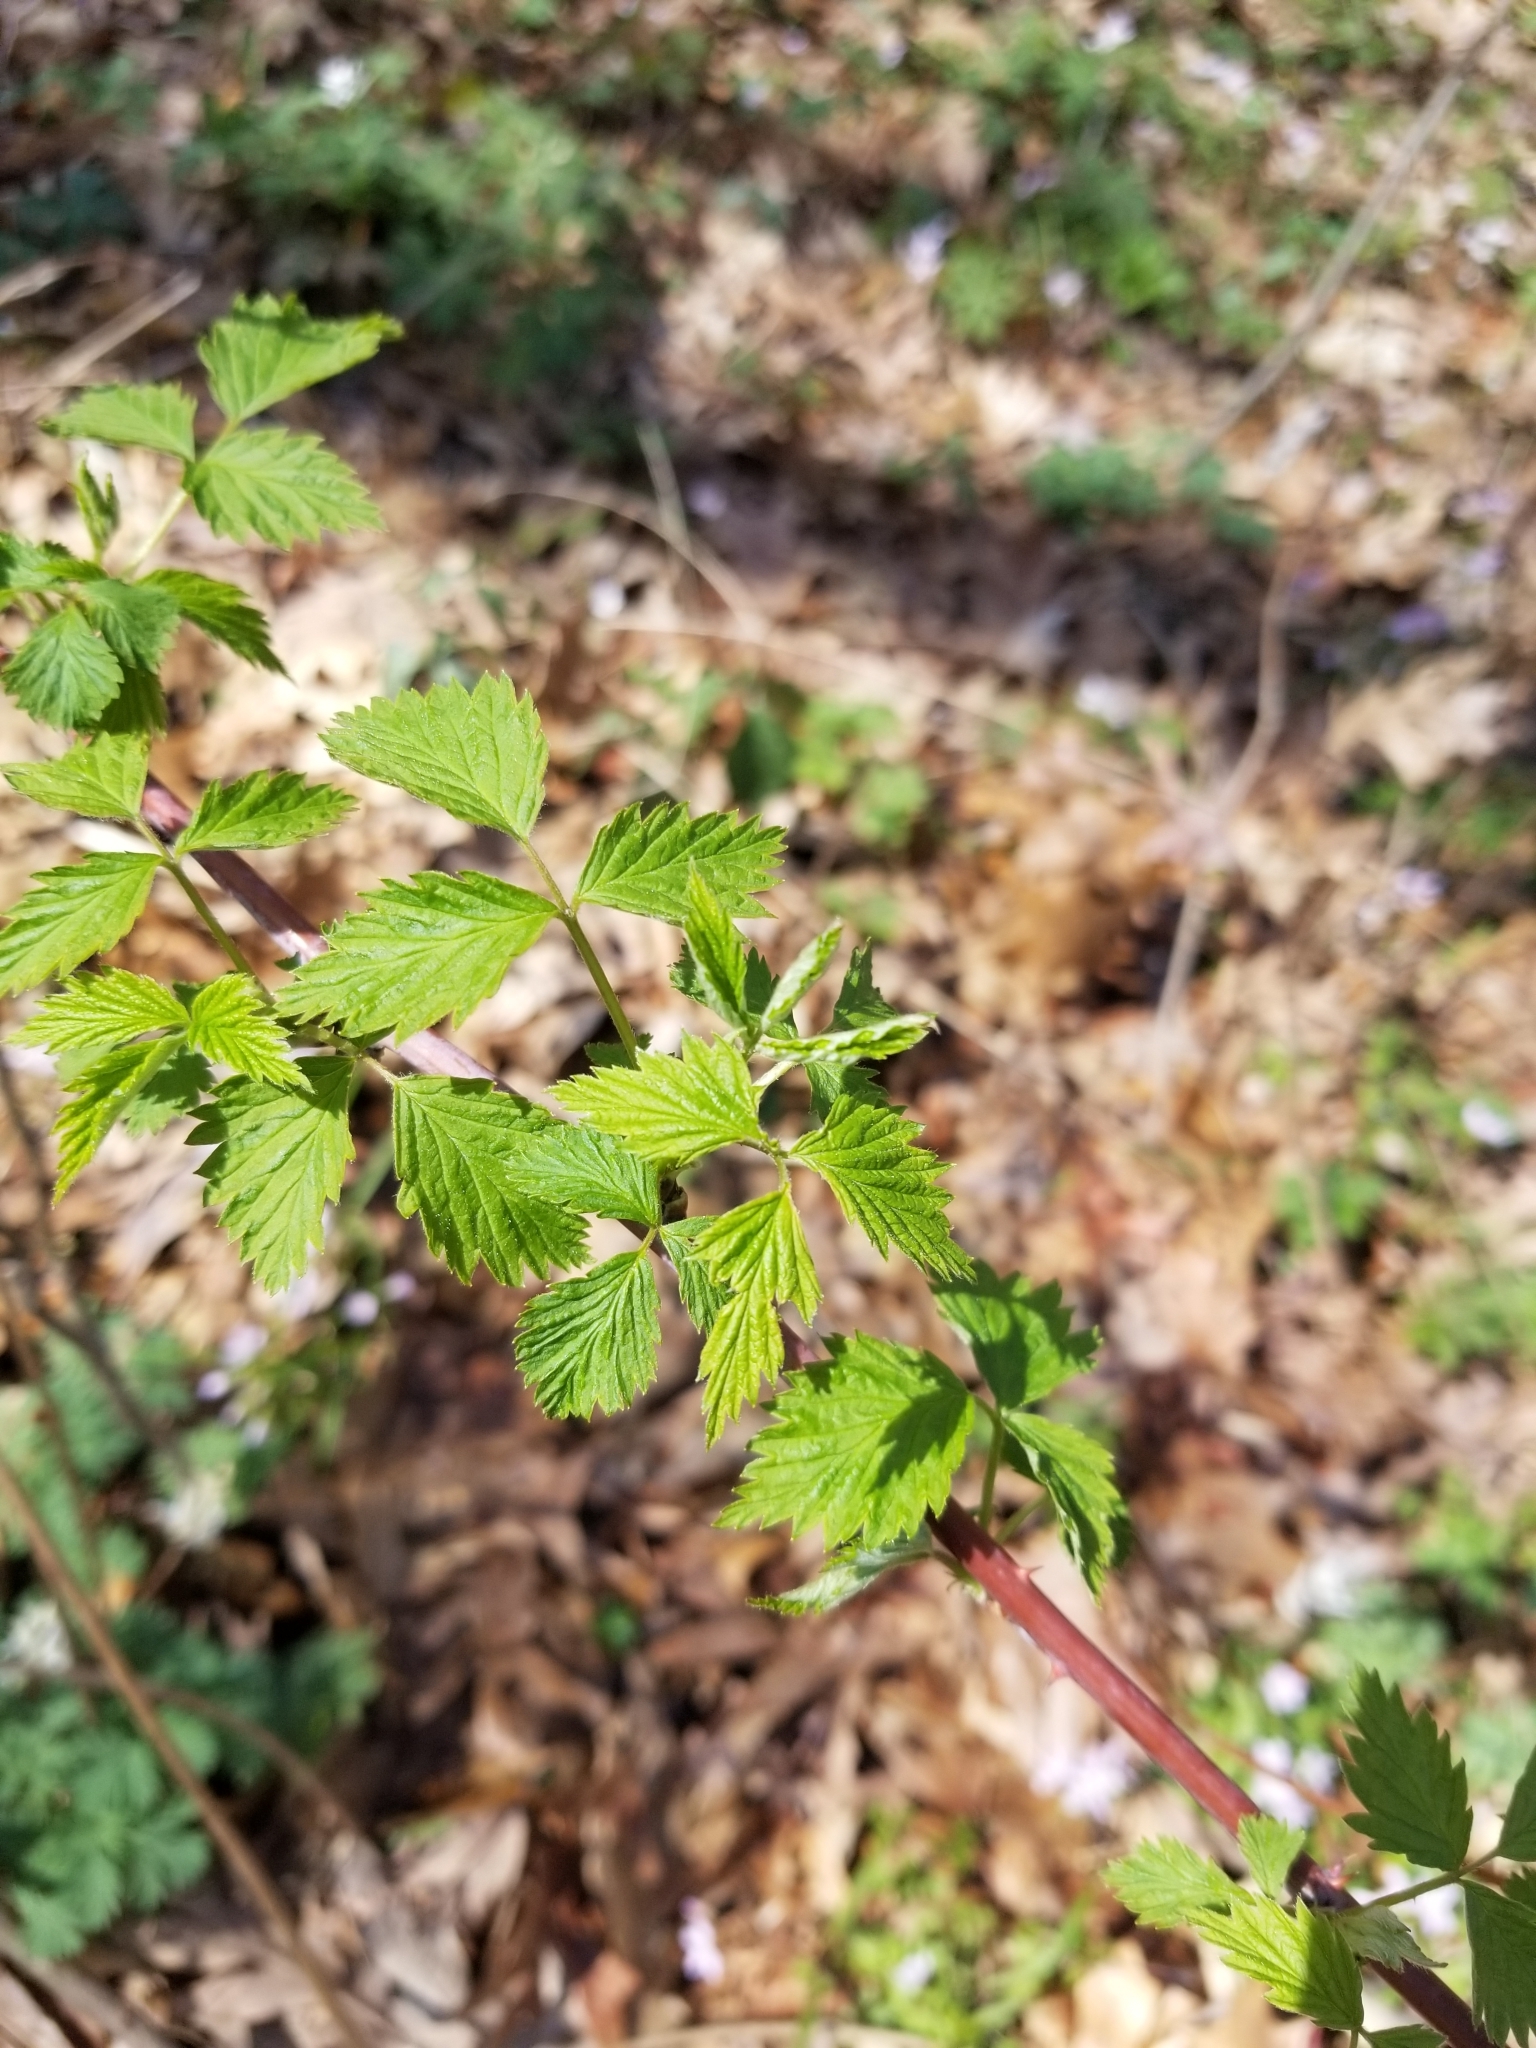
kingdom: Plantae
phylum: Tracheophyta
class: Magnoliopsida
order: Rosales
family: Rosaceae
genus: Rubus
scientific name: Rubus occidentalis
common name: Black raspberry
